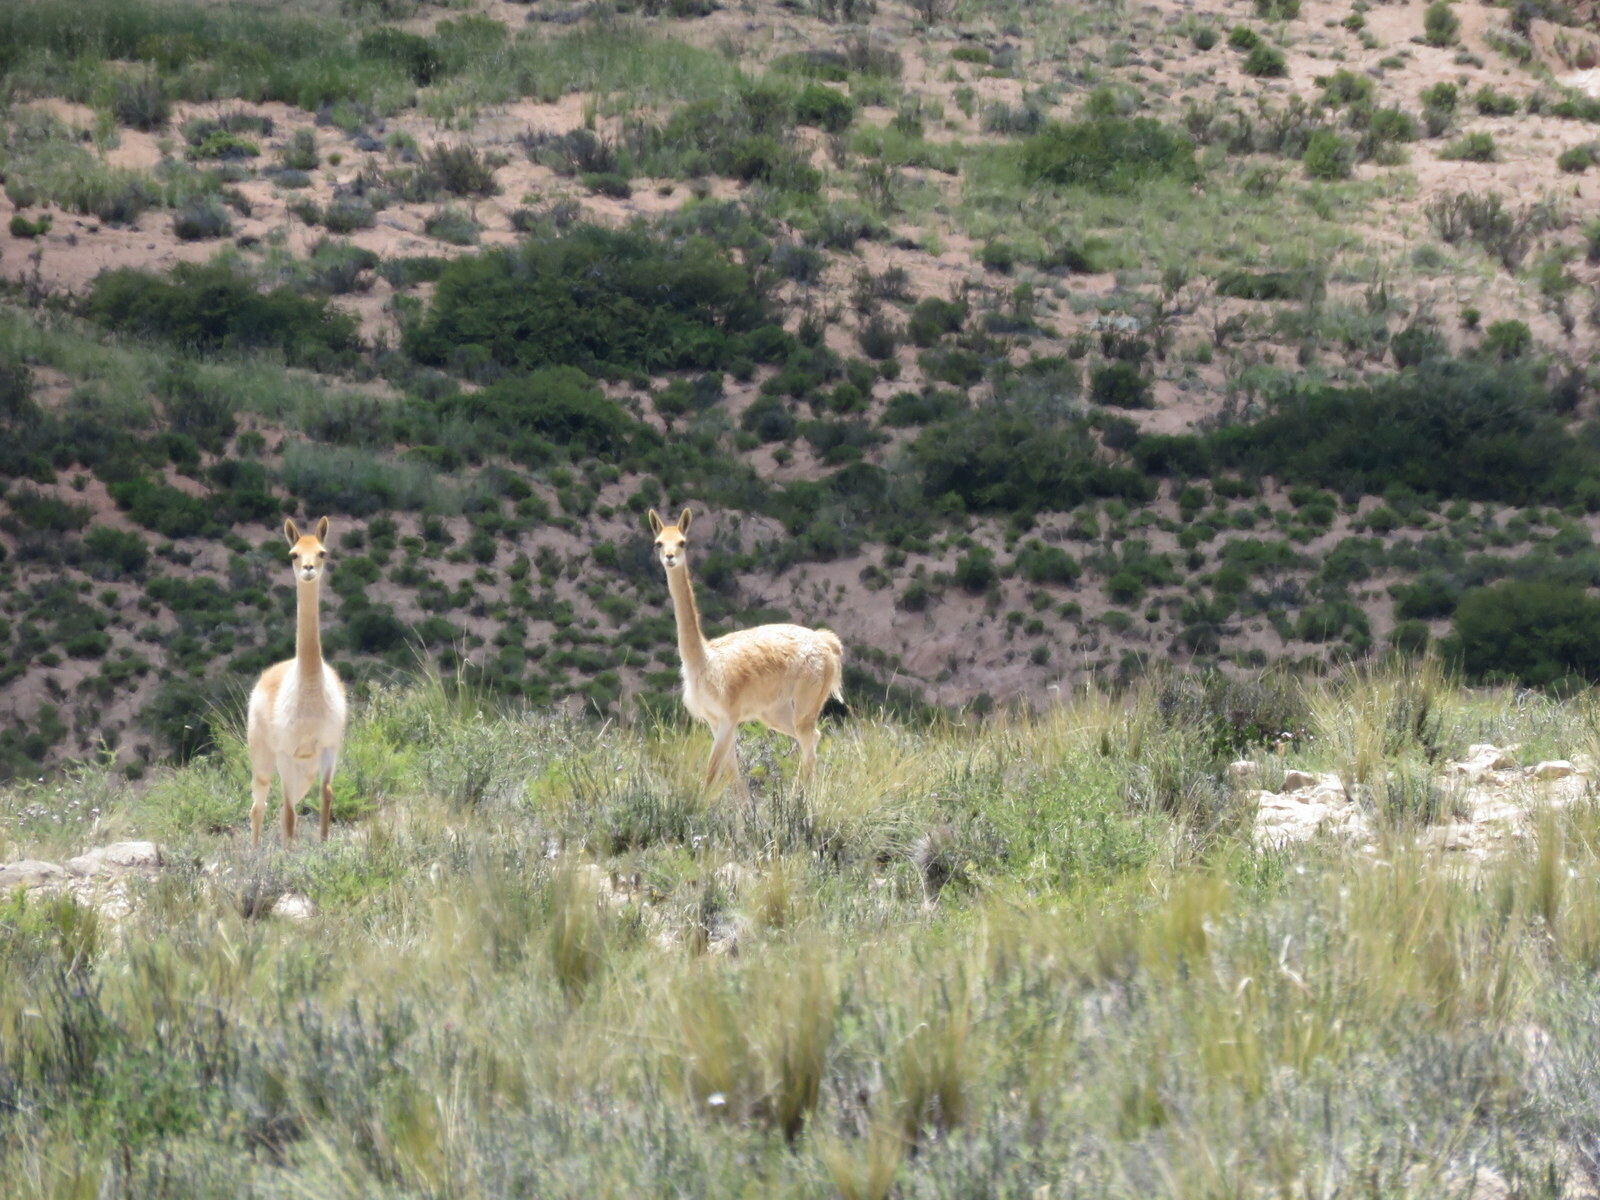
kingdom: Animalia
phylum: Chordata
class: Mammalia
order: Artiodactyla
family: Camelidae
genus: Vicugna
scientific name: Vicugna vicugna
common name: Vicugna
